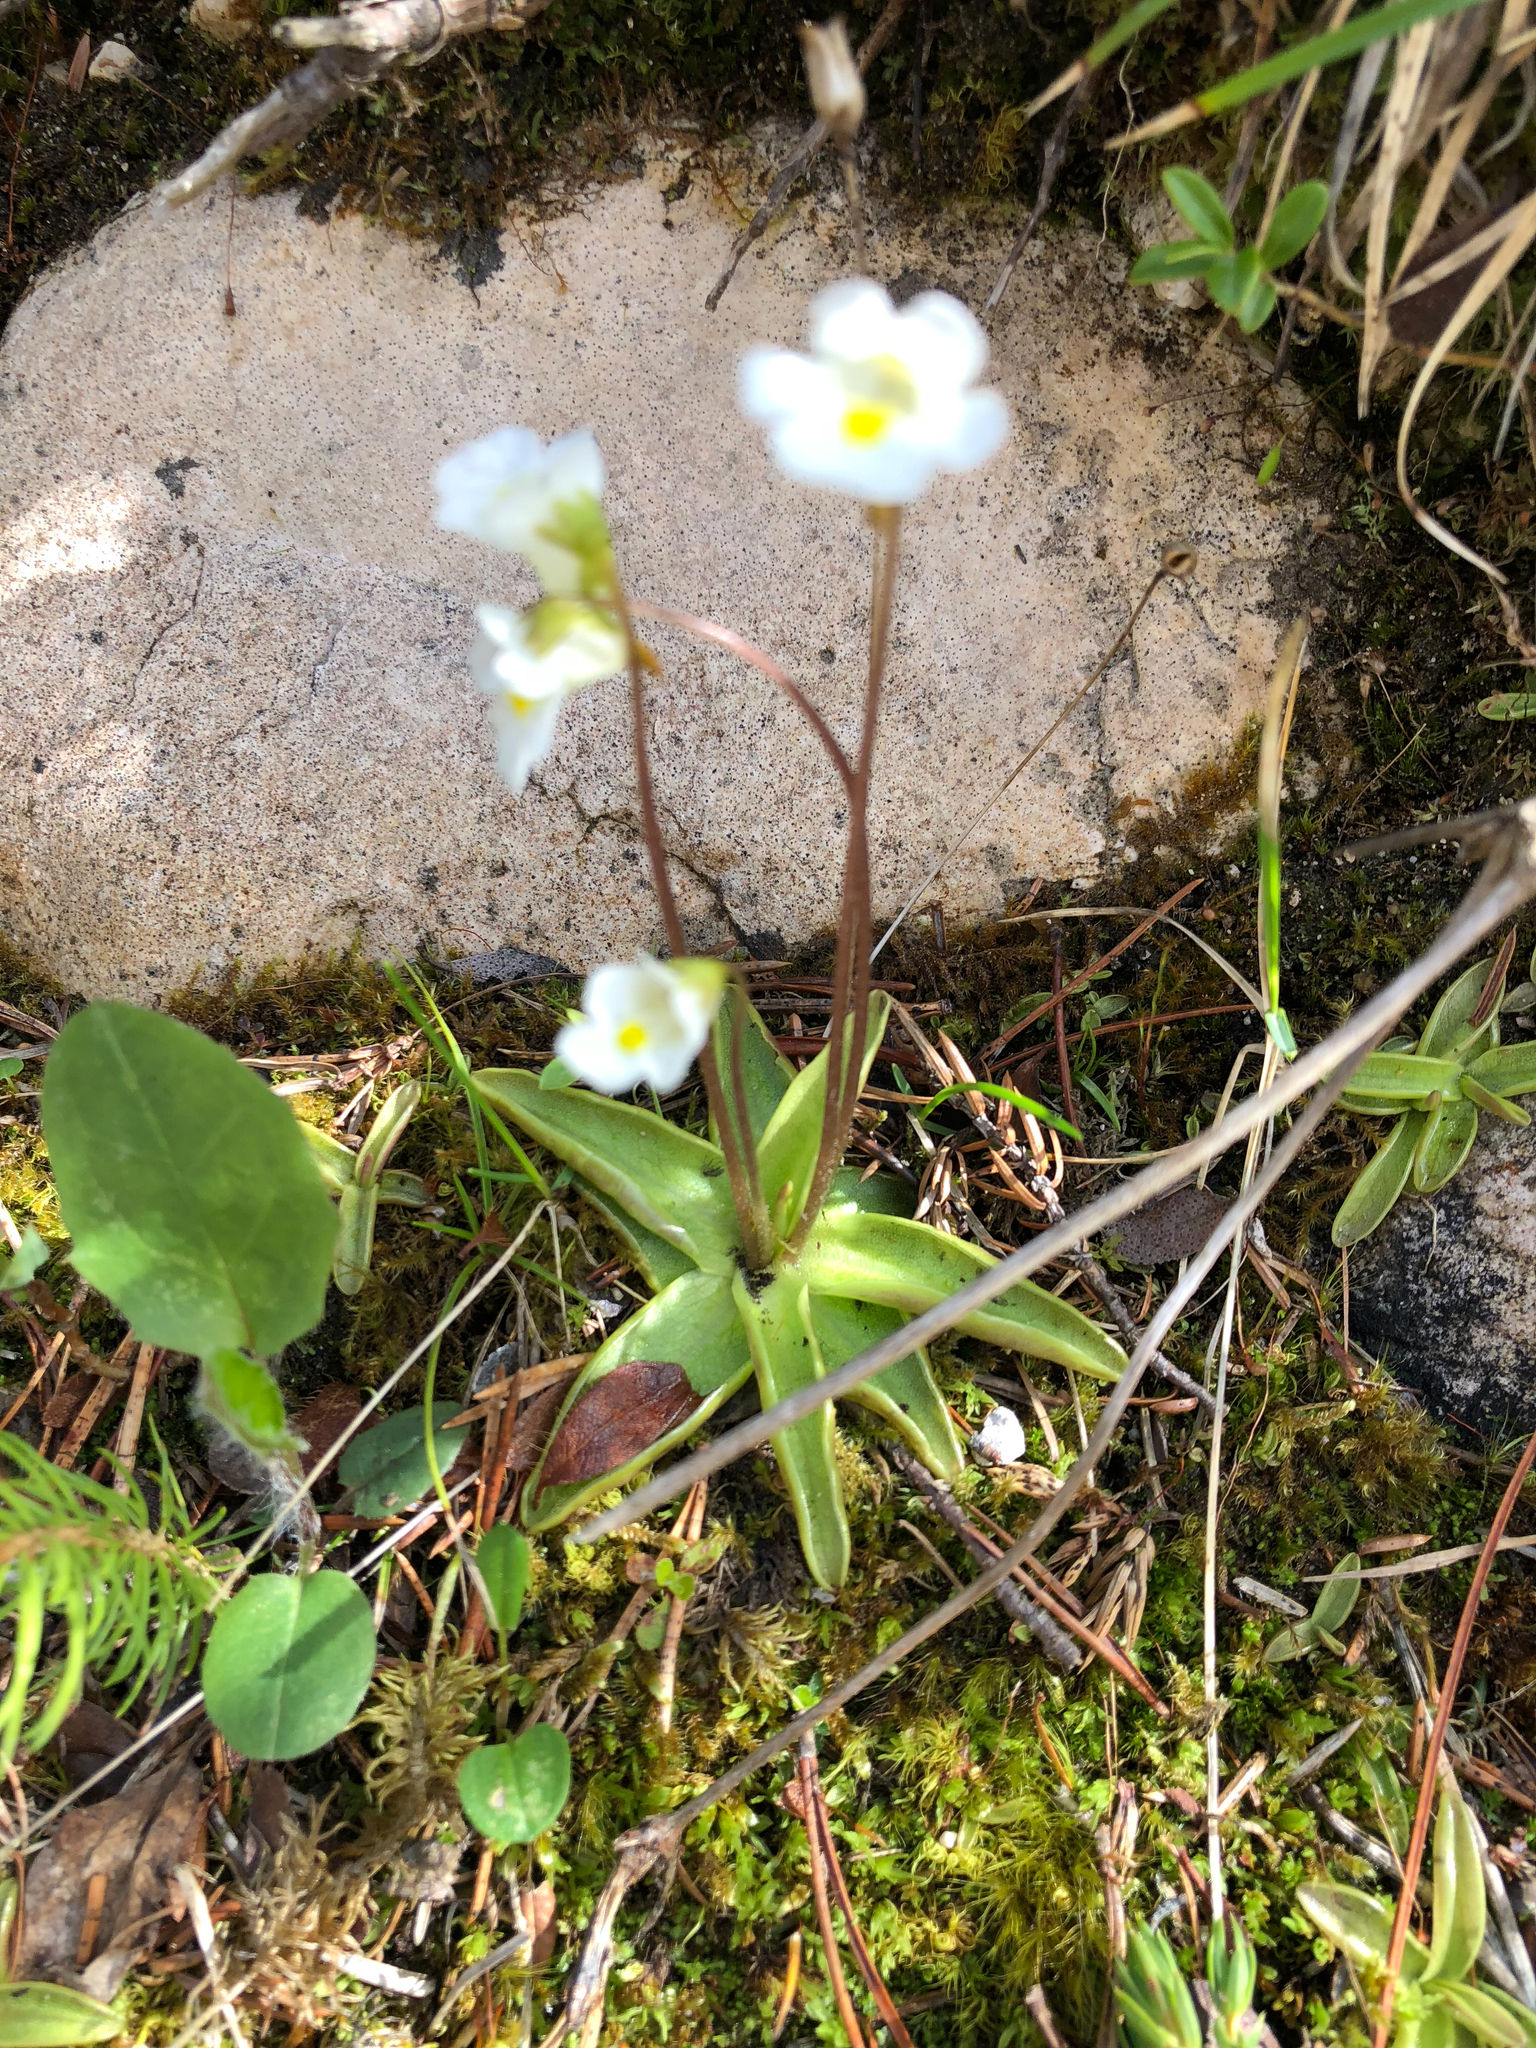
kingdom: Plantae
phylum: Tracheophyta
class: Magnoliopsida
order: Lamiales
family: Lentibulariaceae
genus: Pinguicula
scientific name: Pinguicula alpina
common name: Alpine butterwort
